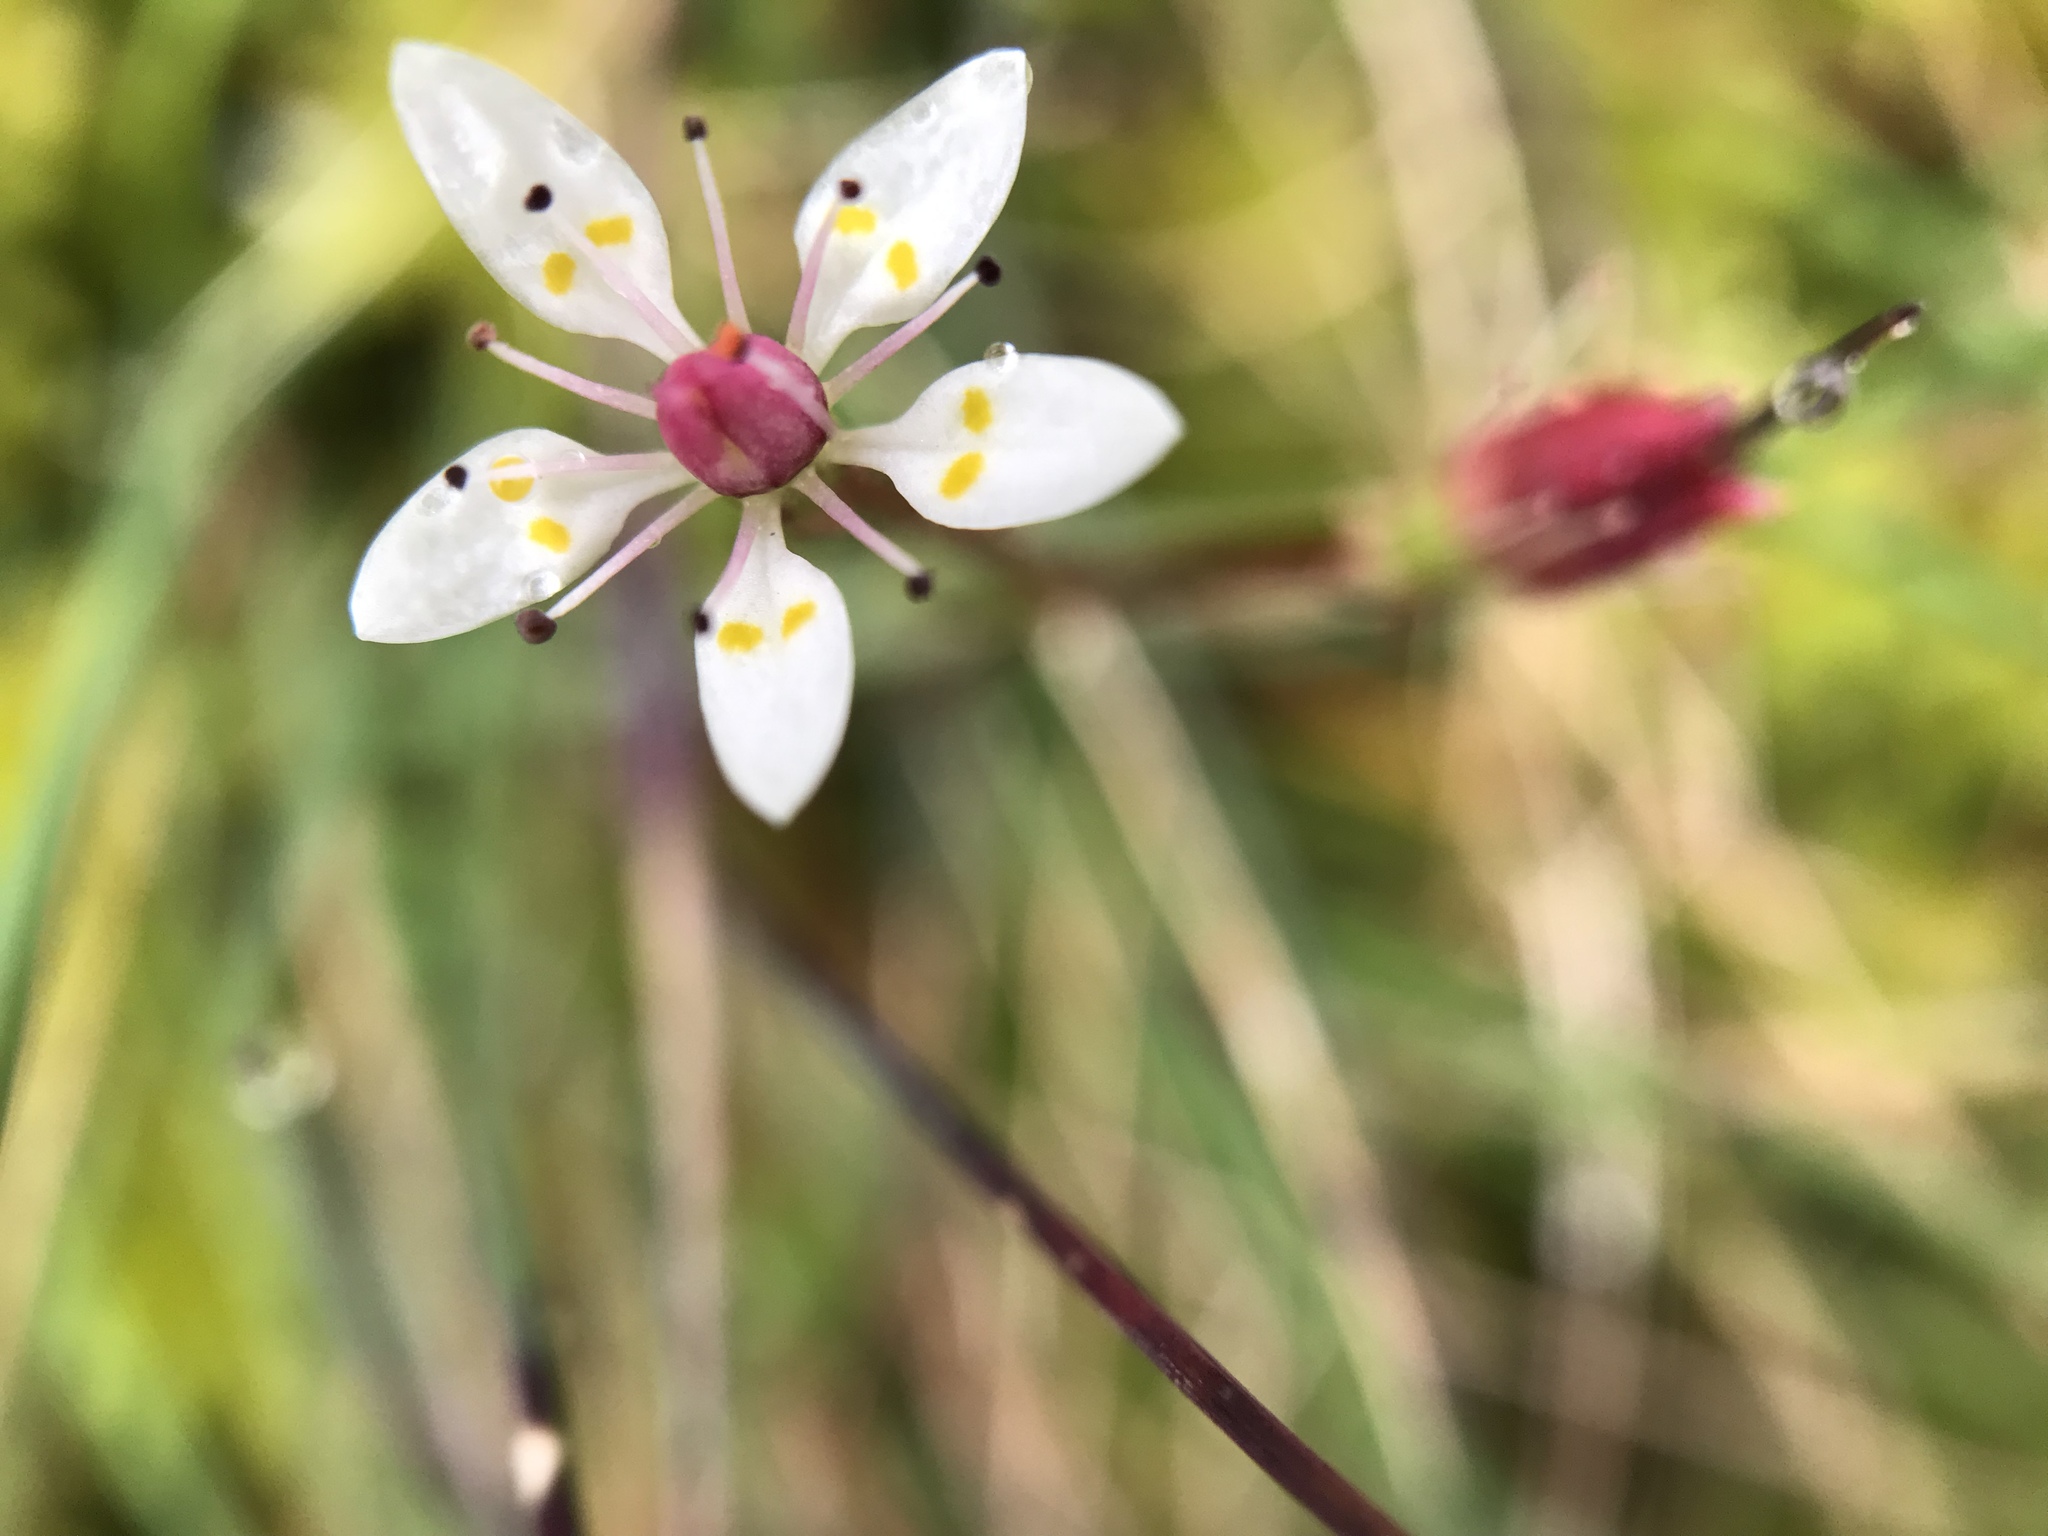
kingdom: Plantae
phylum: Tracheophyta
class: Magnoliopsida
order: Saxifragales
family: Saxifragaceae
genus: Micranthes
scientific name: Micranthes stellaris
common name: Starry saxifrage
